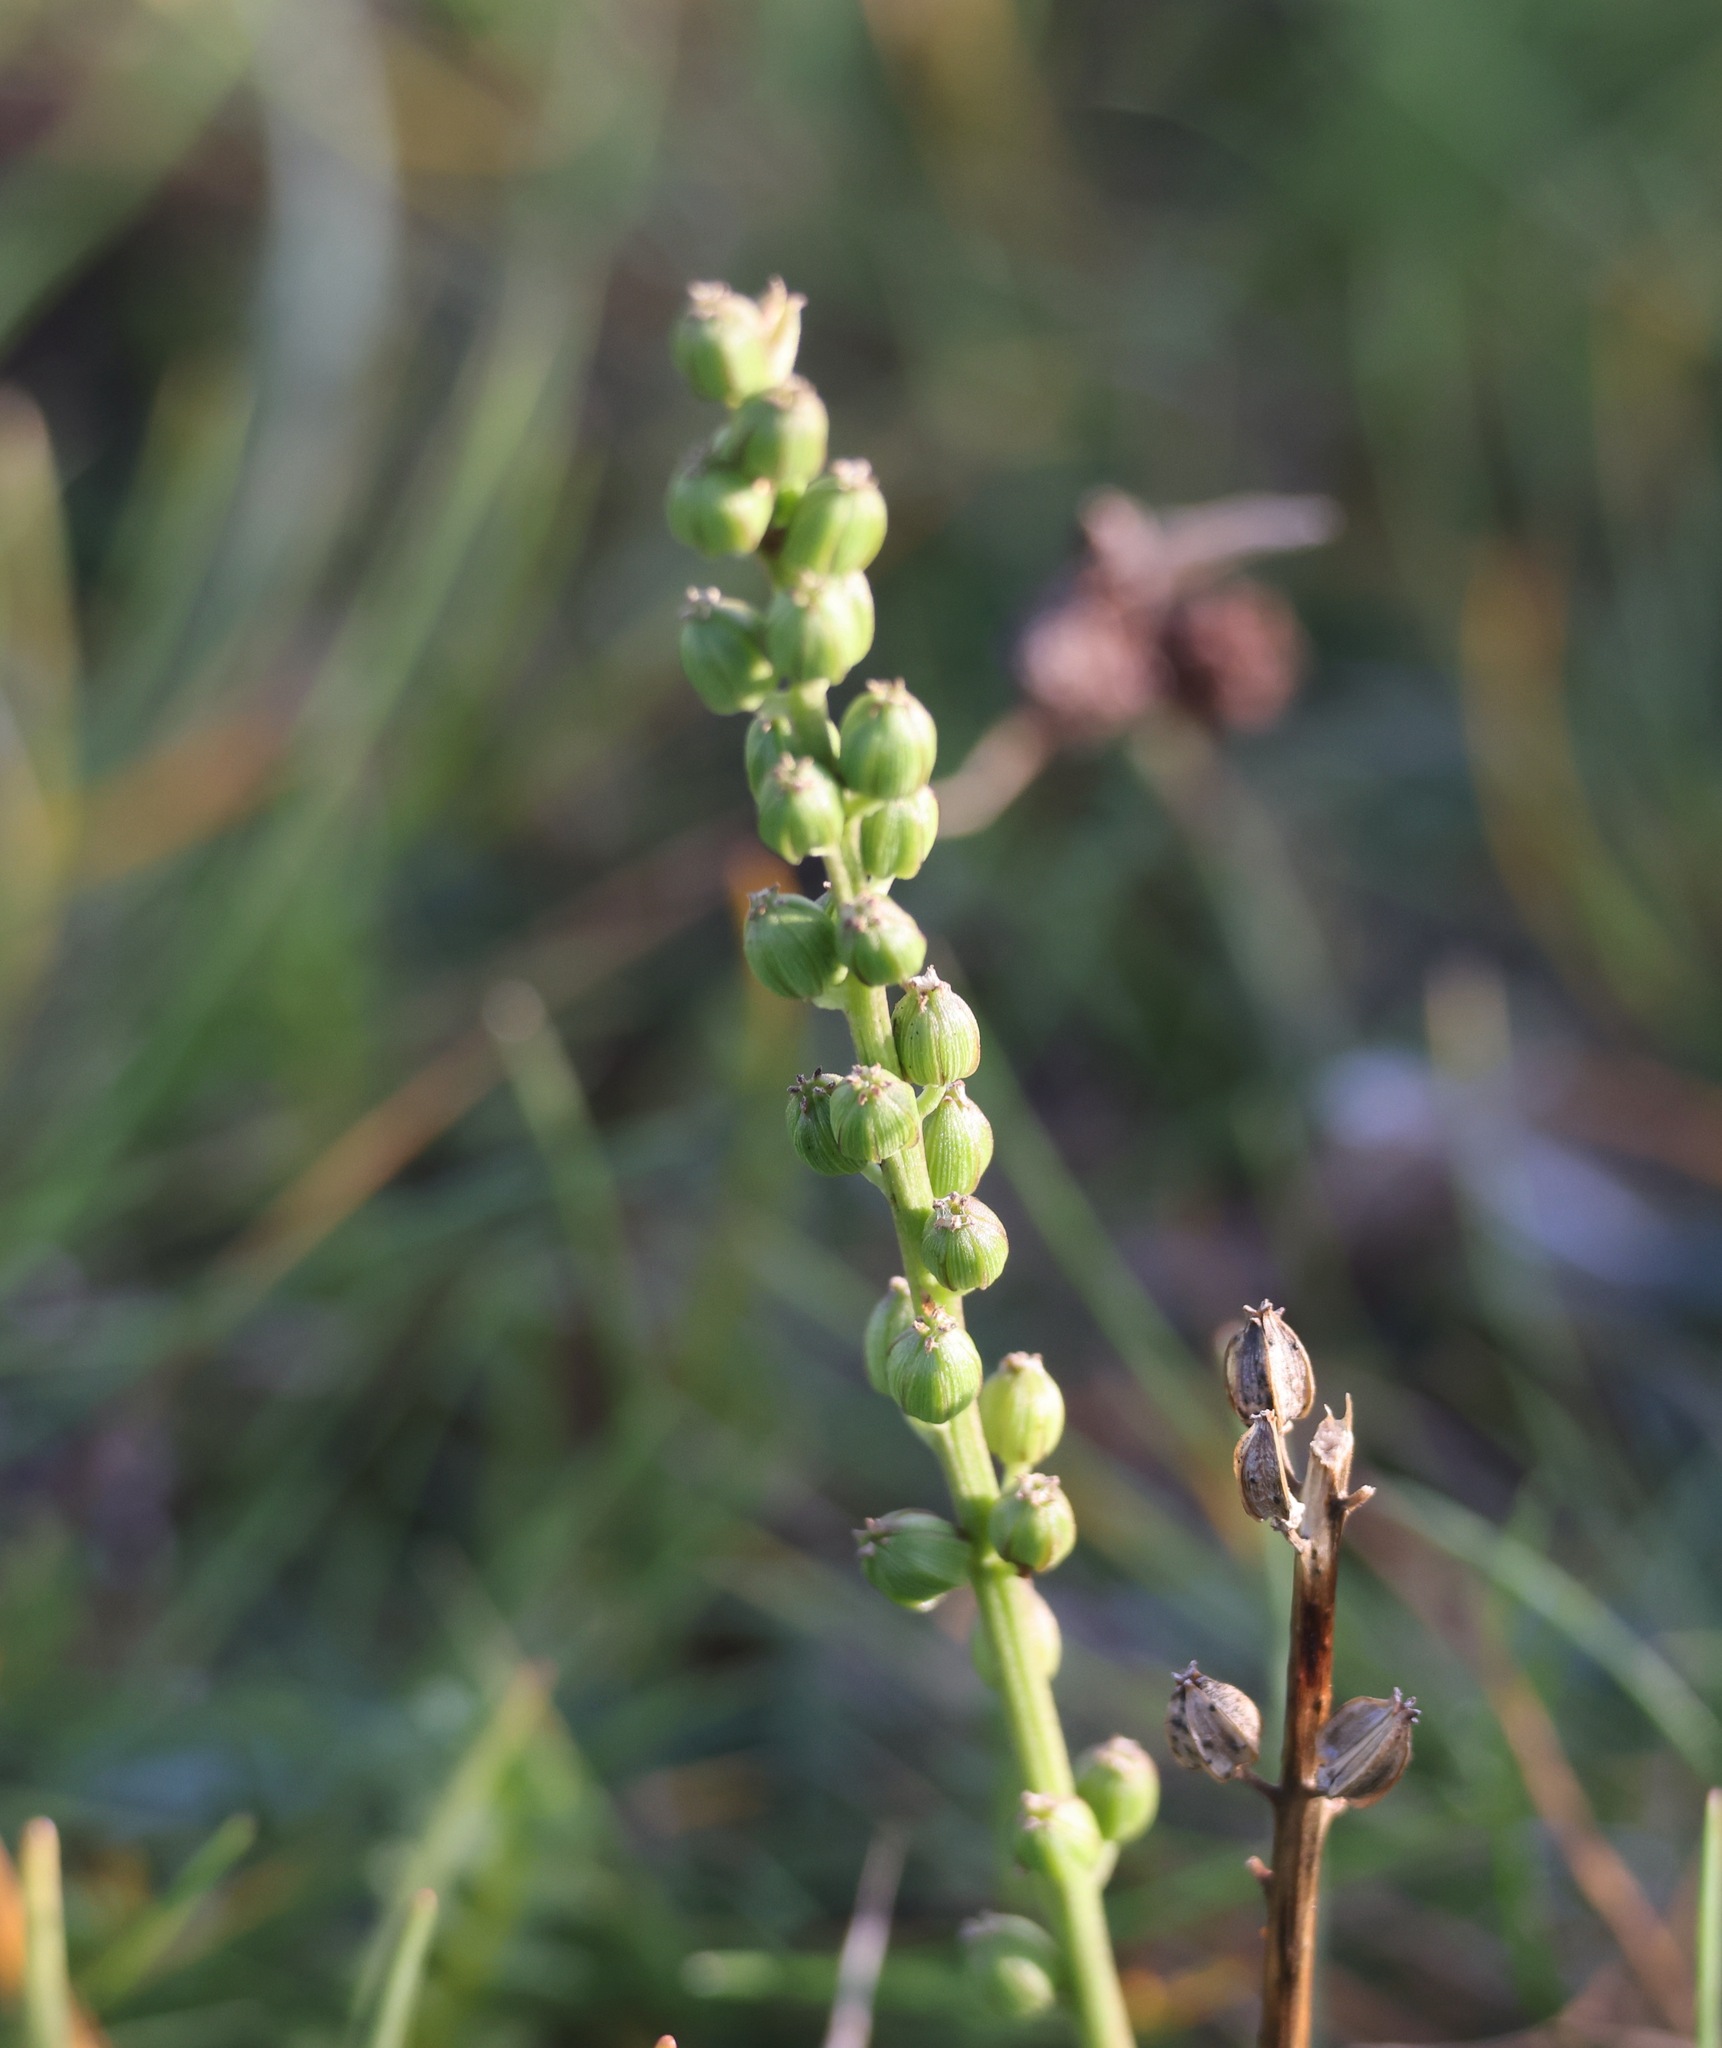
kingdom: Plantae
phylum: Tracheophyta
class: Liliopsida
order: Alismatales
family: Juncaginaceae
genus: Triglochin
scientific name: Triglochin maritima
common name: Sea arrowgrass
